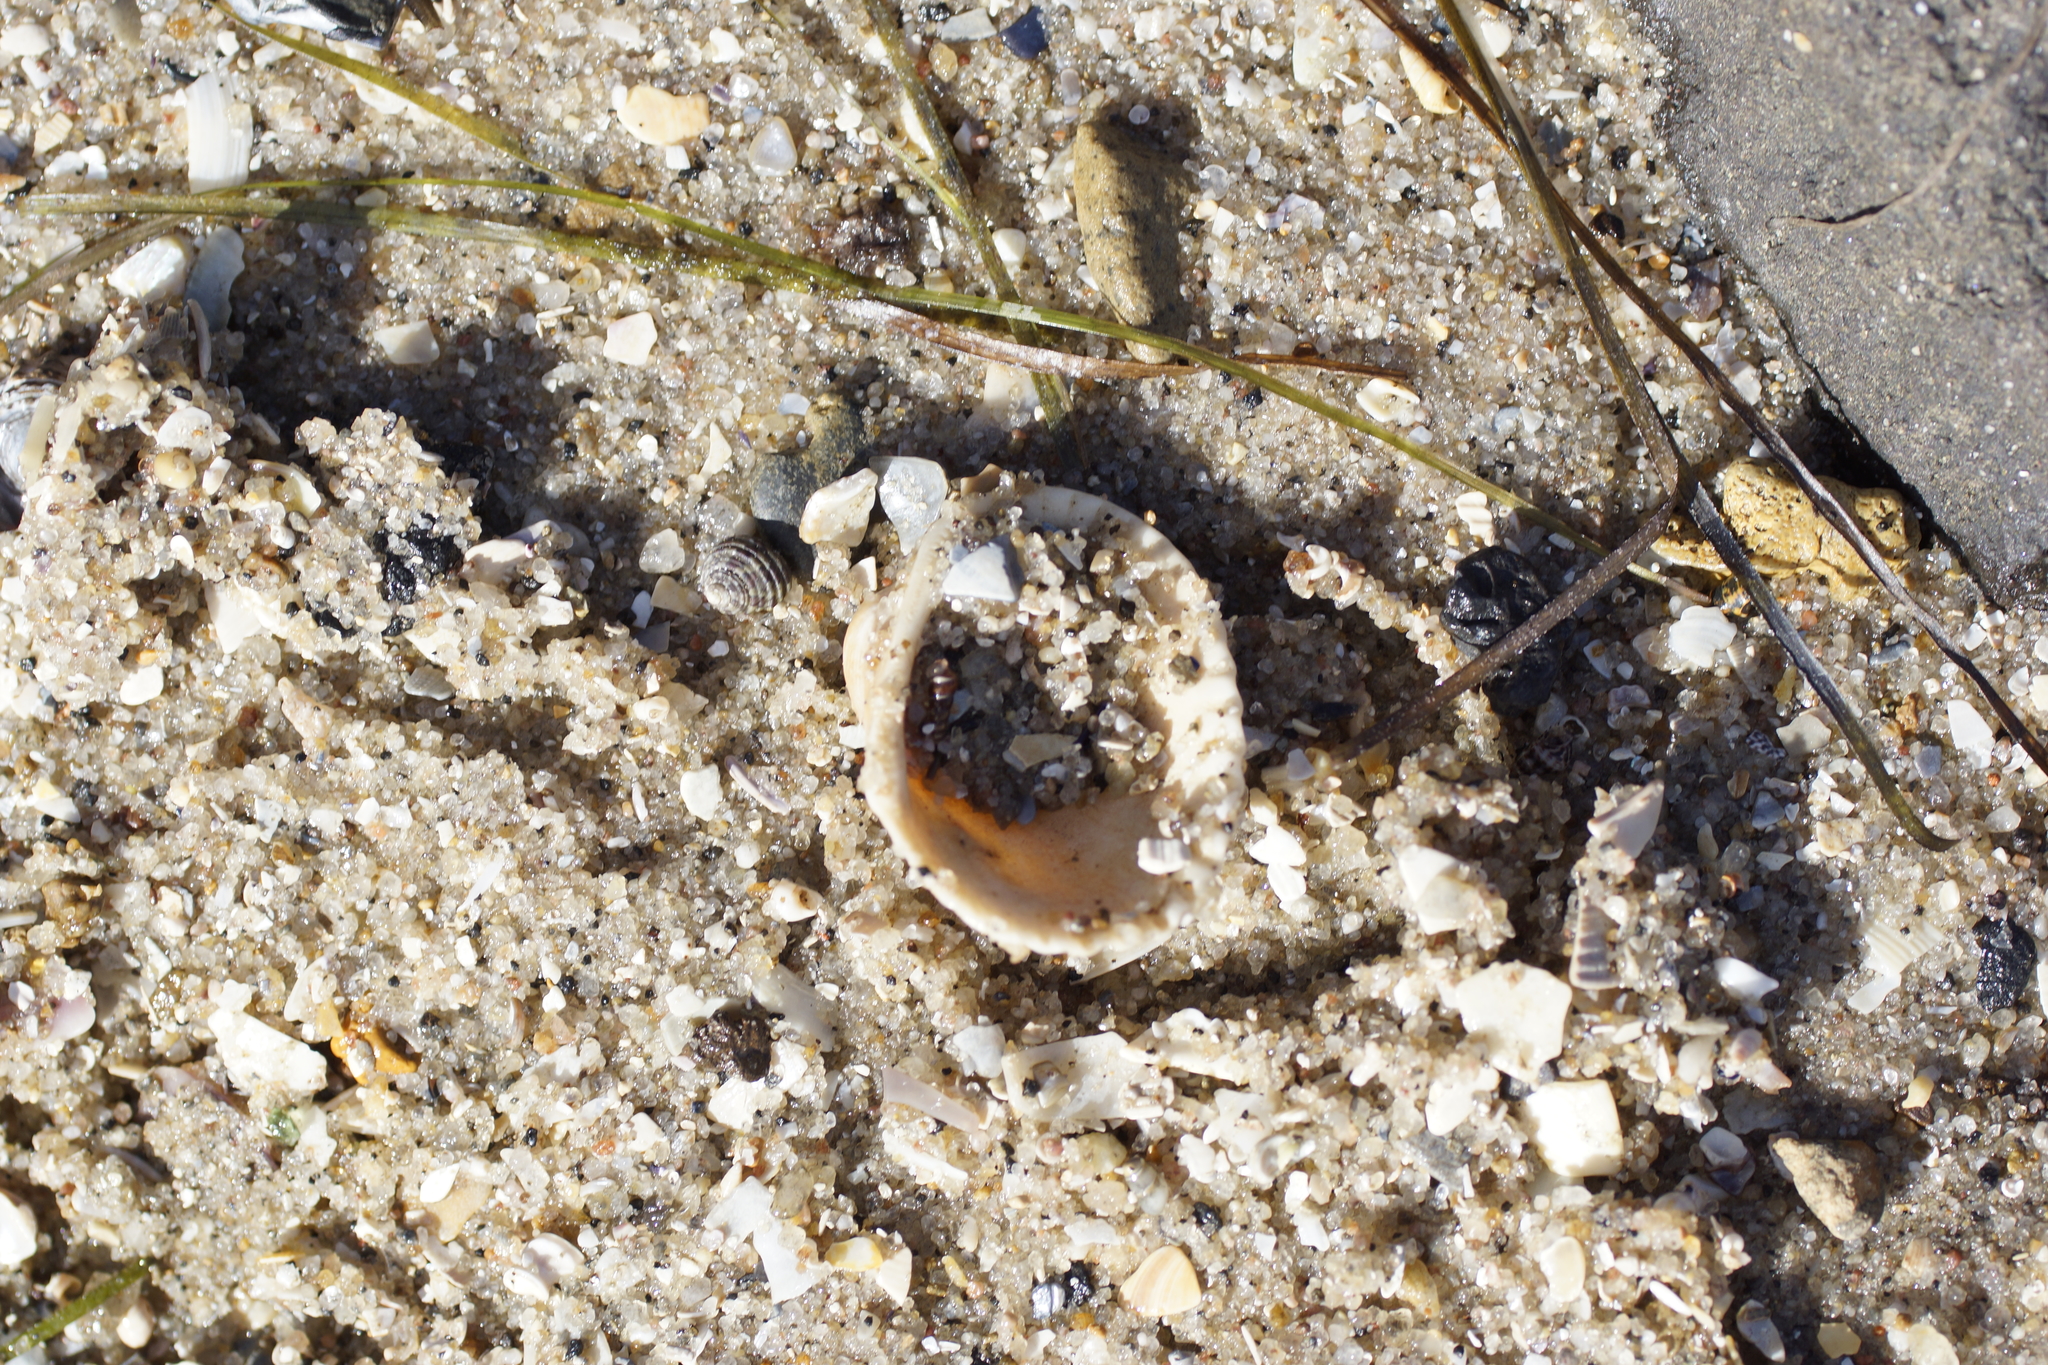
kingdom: Animalia
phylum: Mollusca
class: Bivalvia
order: Arcida
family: Arcidae
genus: Anadara
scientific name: Anadara trapezia
